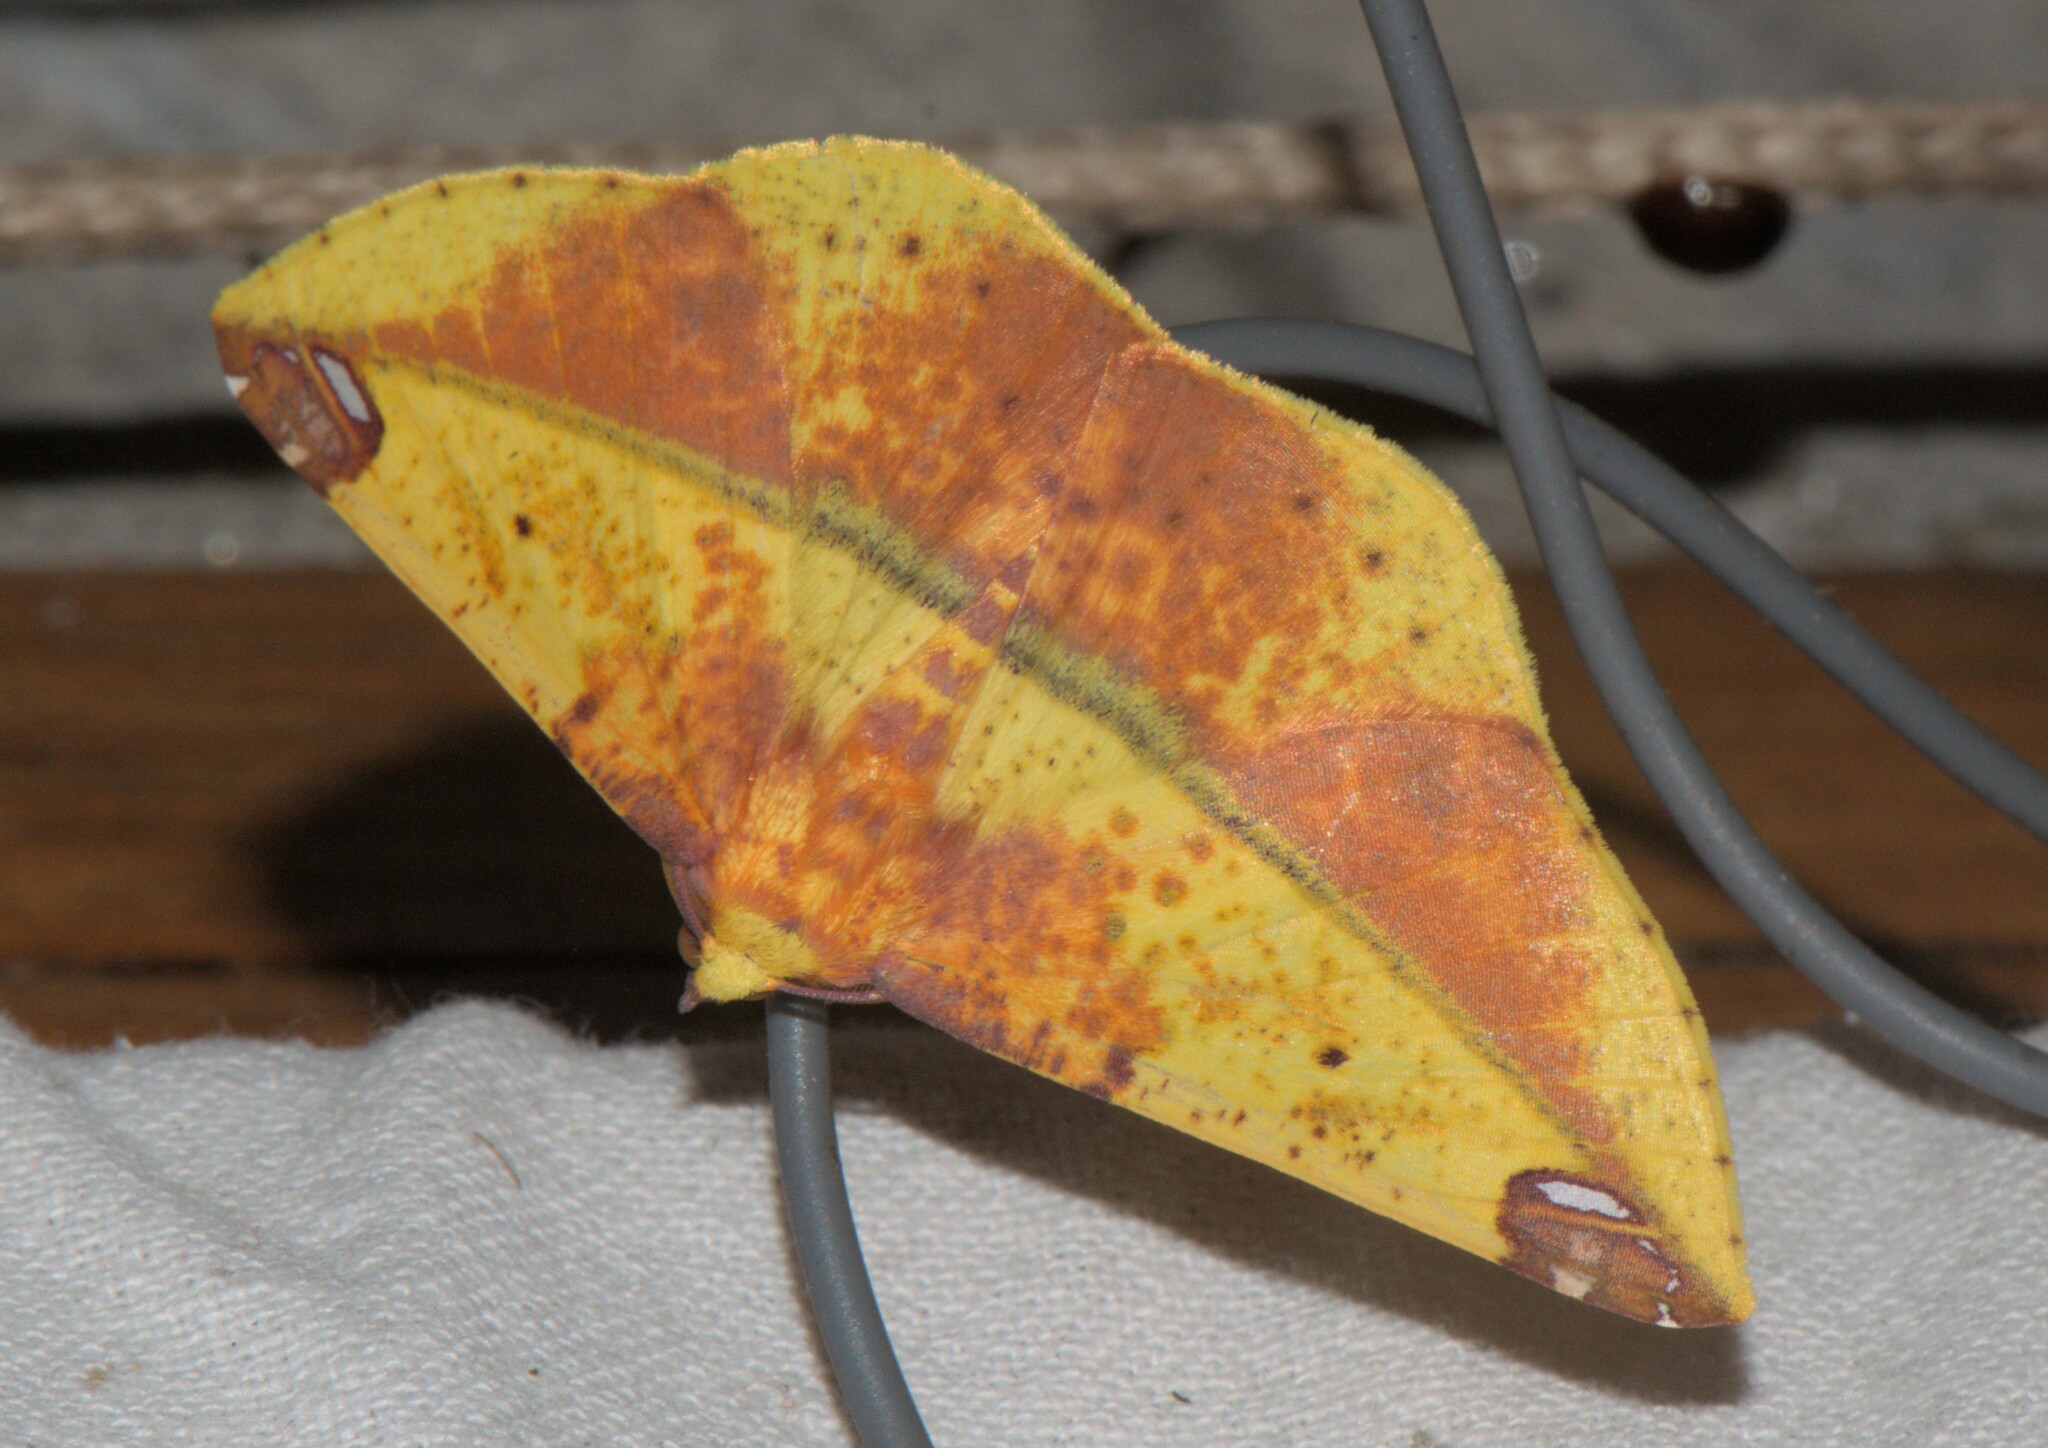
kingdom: Animalia
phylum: Arthropoda
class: Insecta
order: Lepidoptera
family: Geometridae
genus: Mimomiza
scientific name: Mimomiza cruentaria
